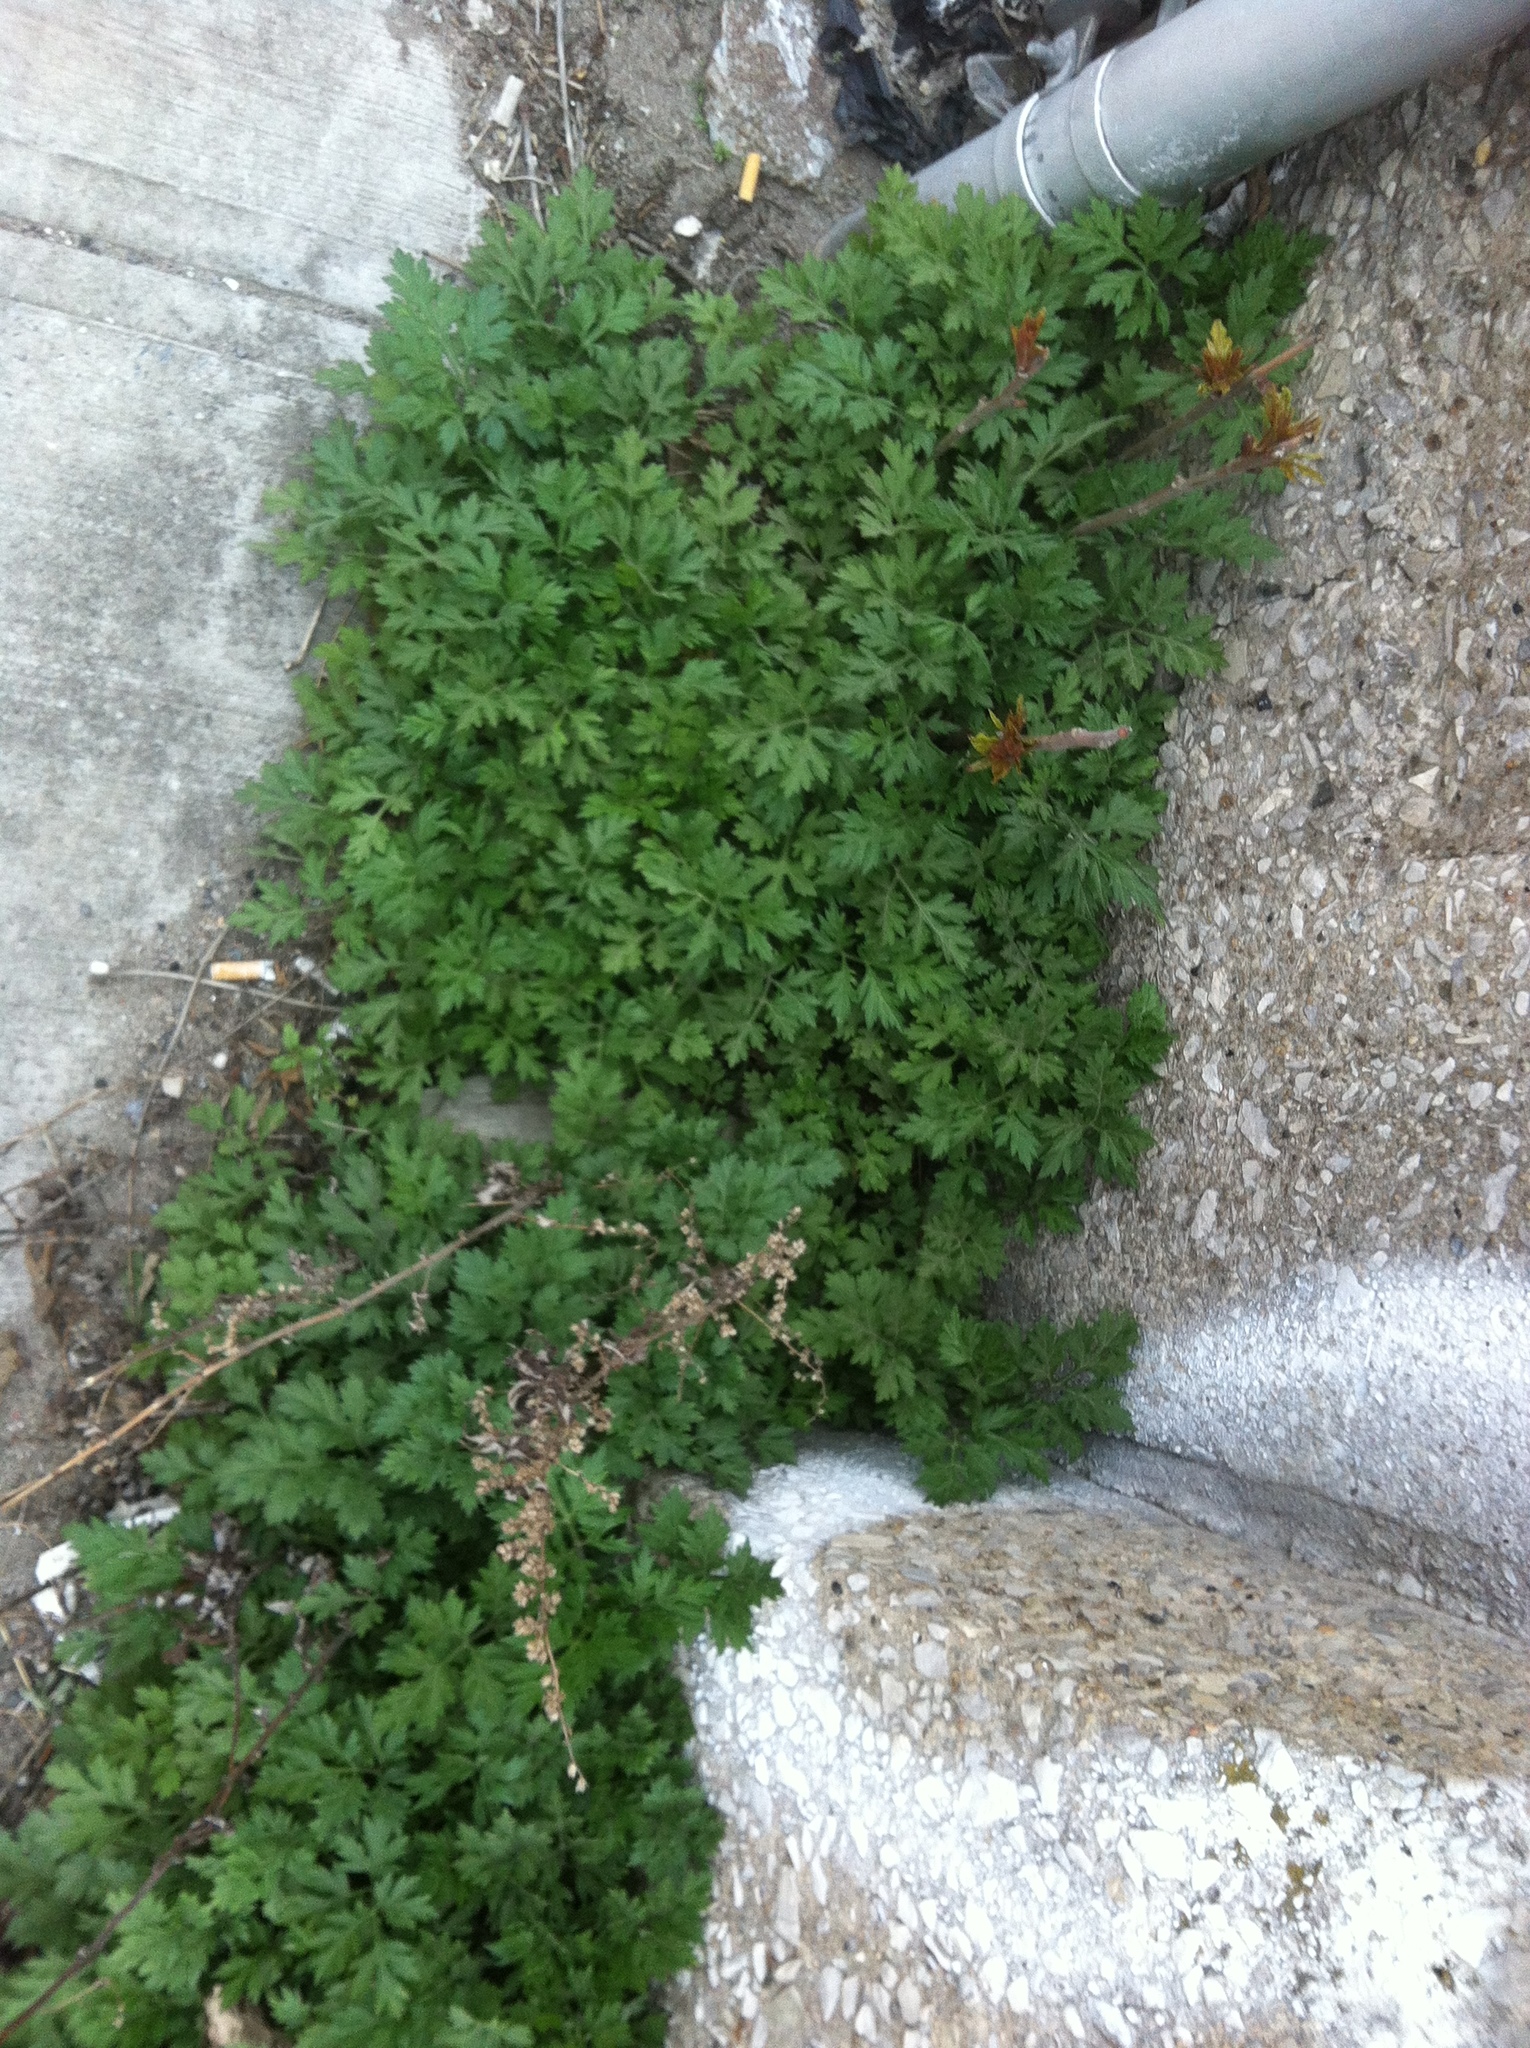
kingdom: Plantae
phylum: Tracheophyta
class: Magnoliopsida
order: Asterales
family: Asteraceae
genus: Artemisia
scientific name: Artemisia vulgaris
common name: Mugwort
